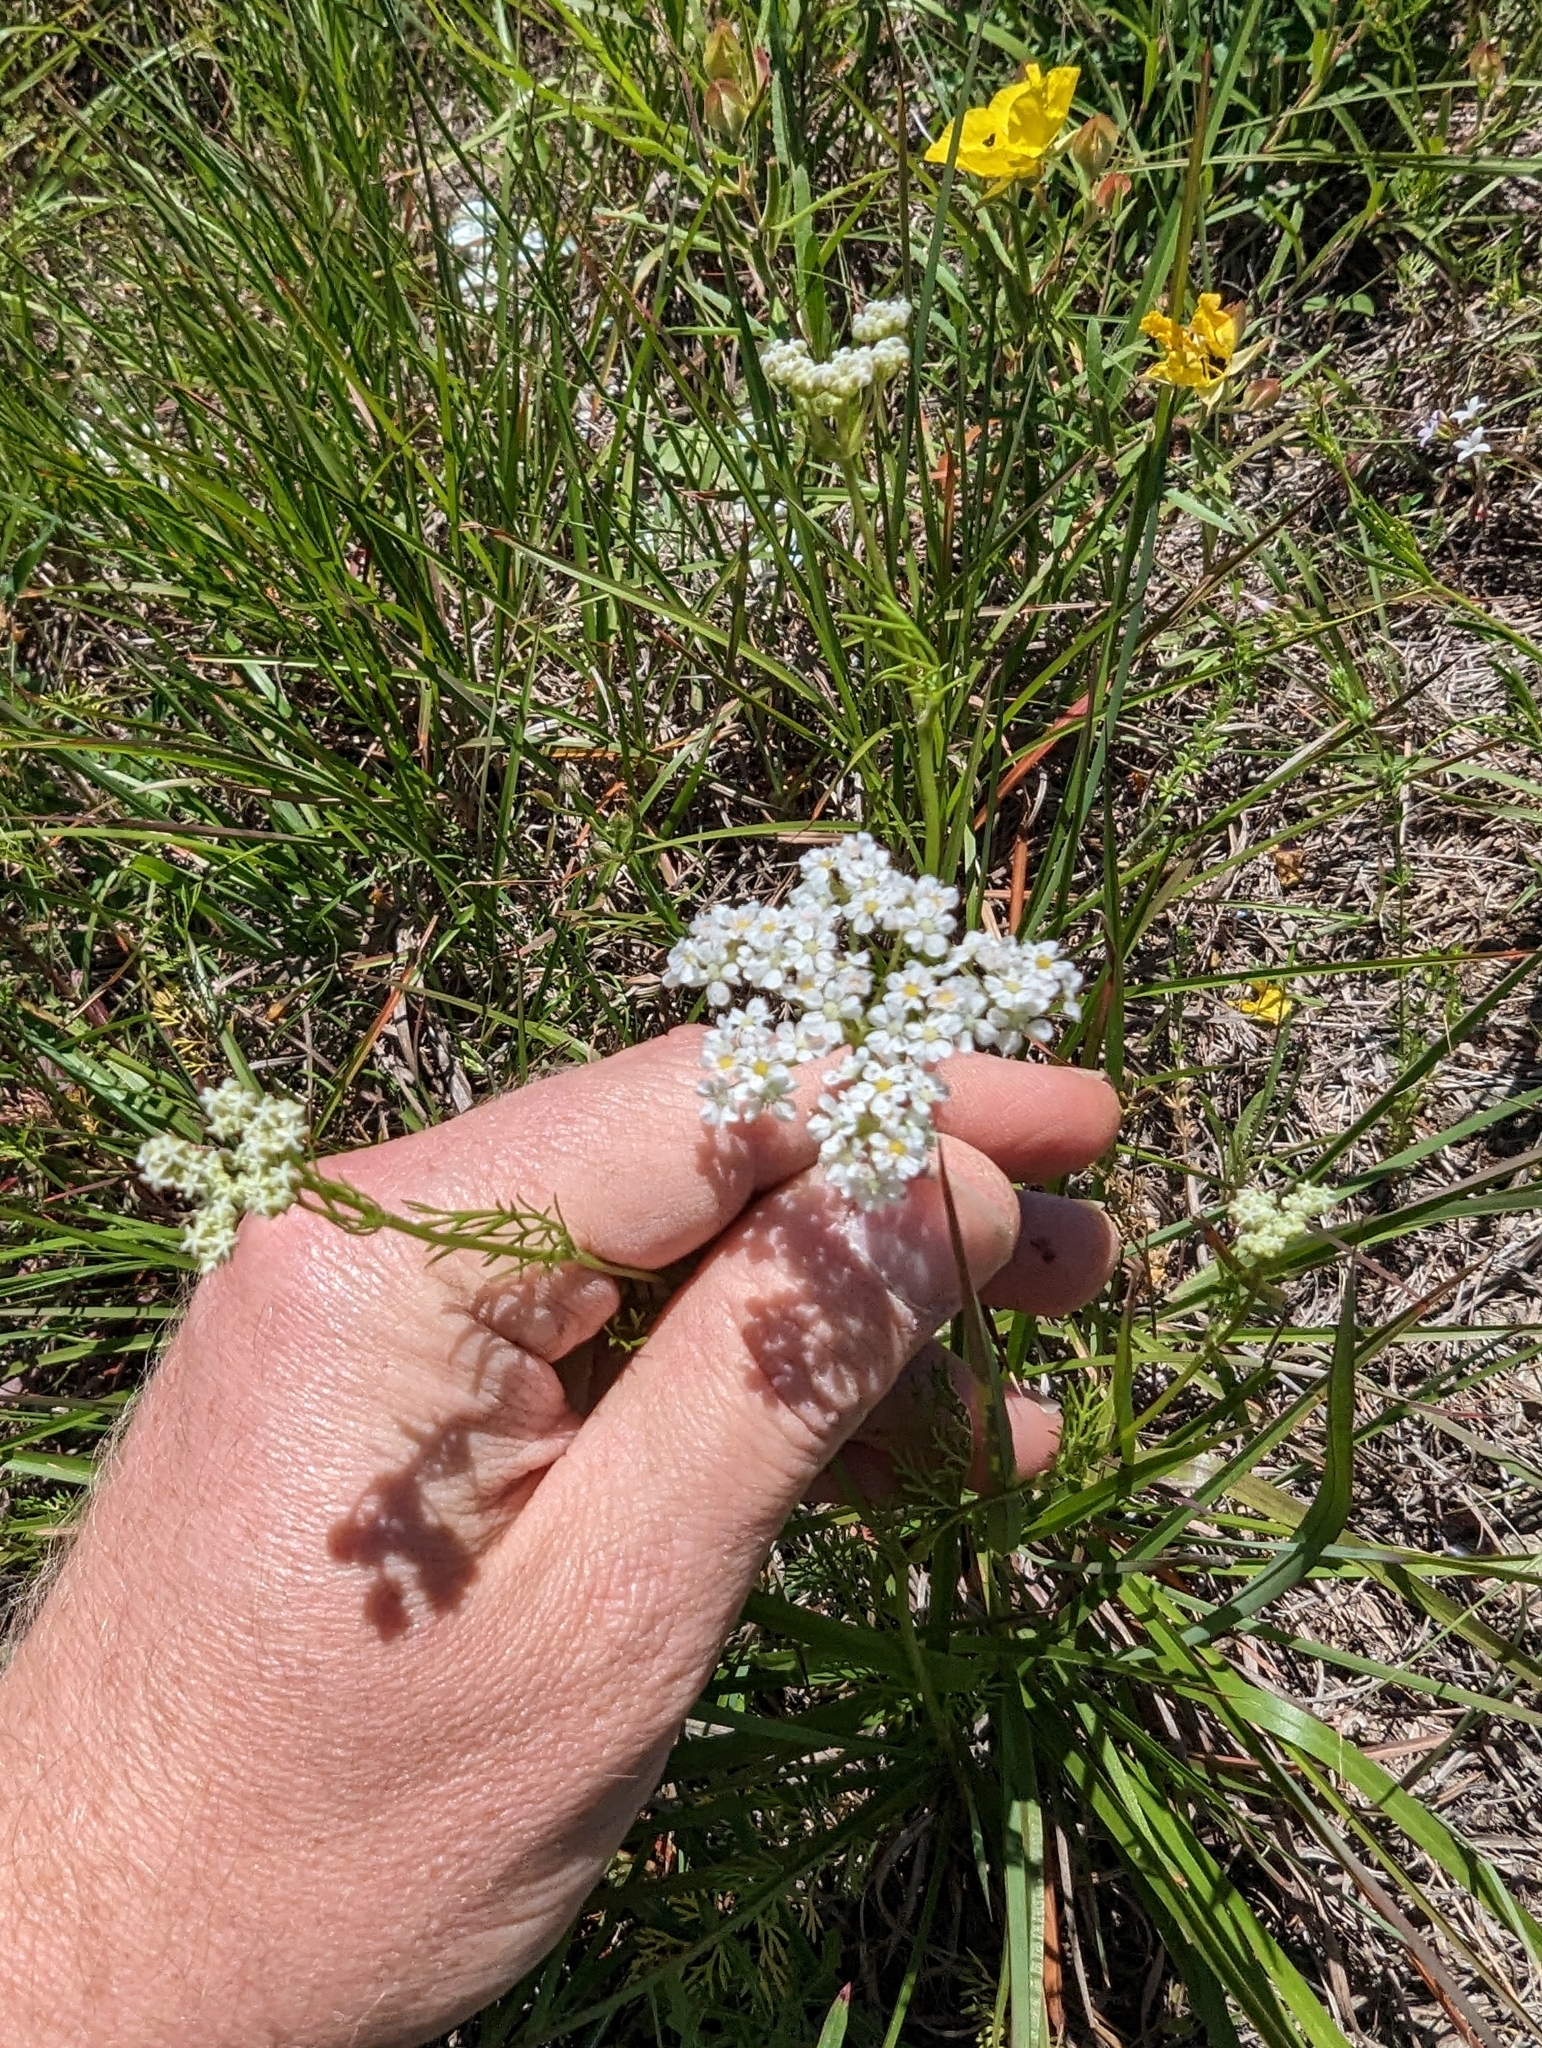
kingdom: Plantae
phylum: Tracheophyta
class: Magnoliopsida
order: Apiales
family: Apiaceae
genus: Atrema
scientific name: Atrema americanum
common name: Prairie-bishop
